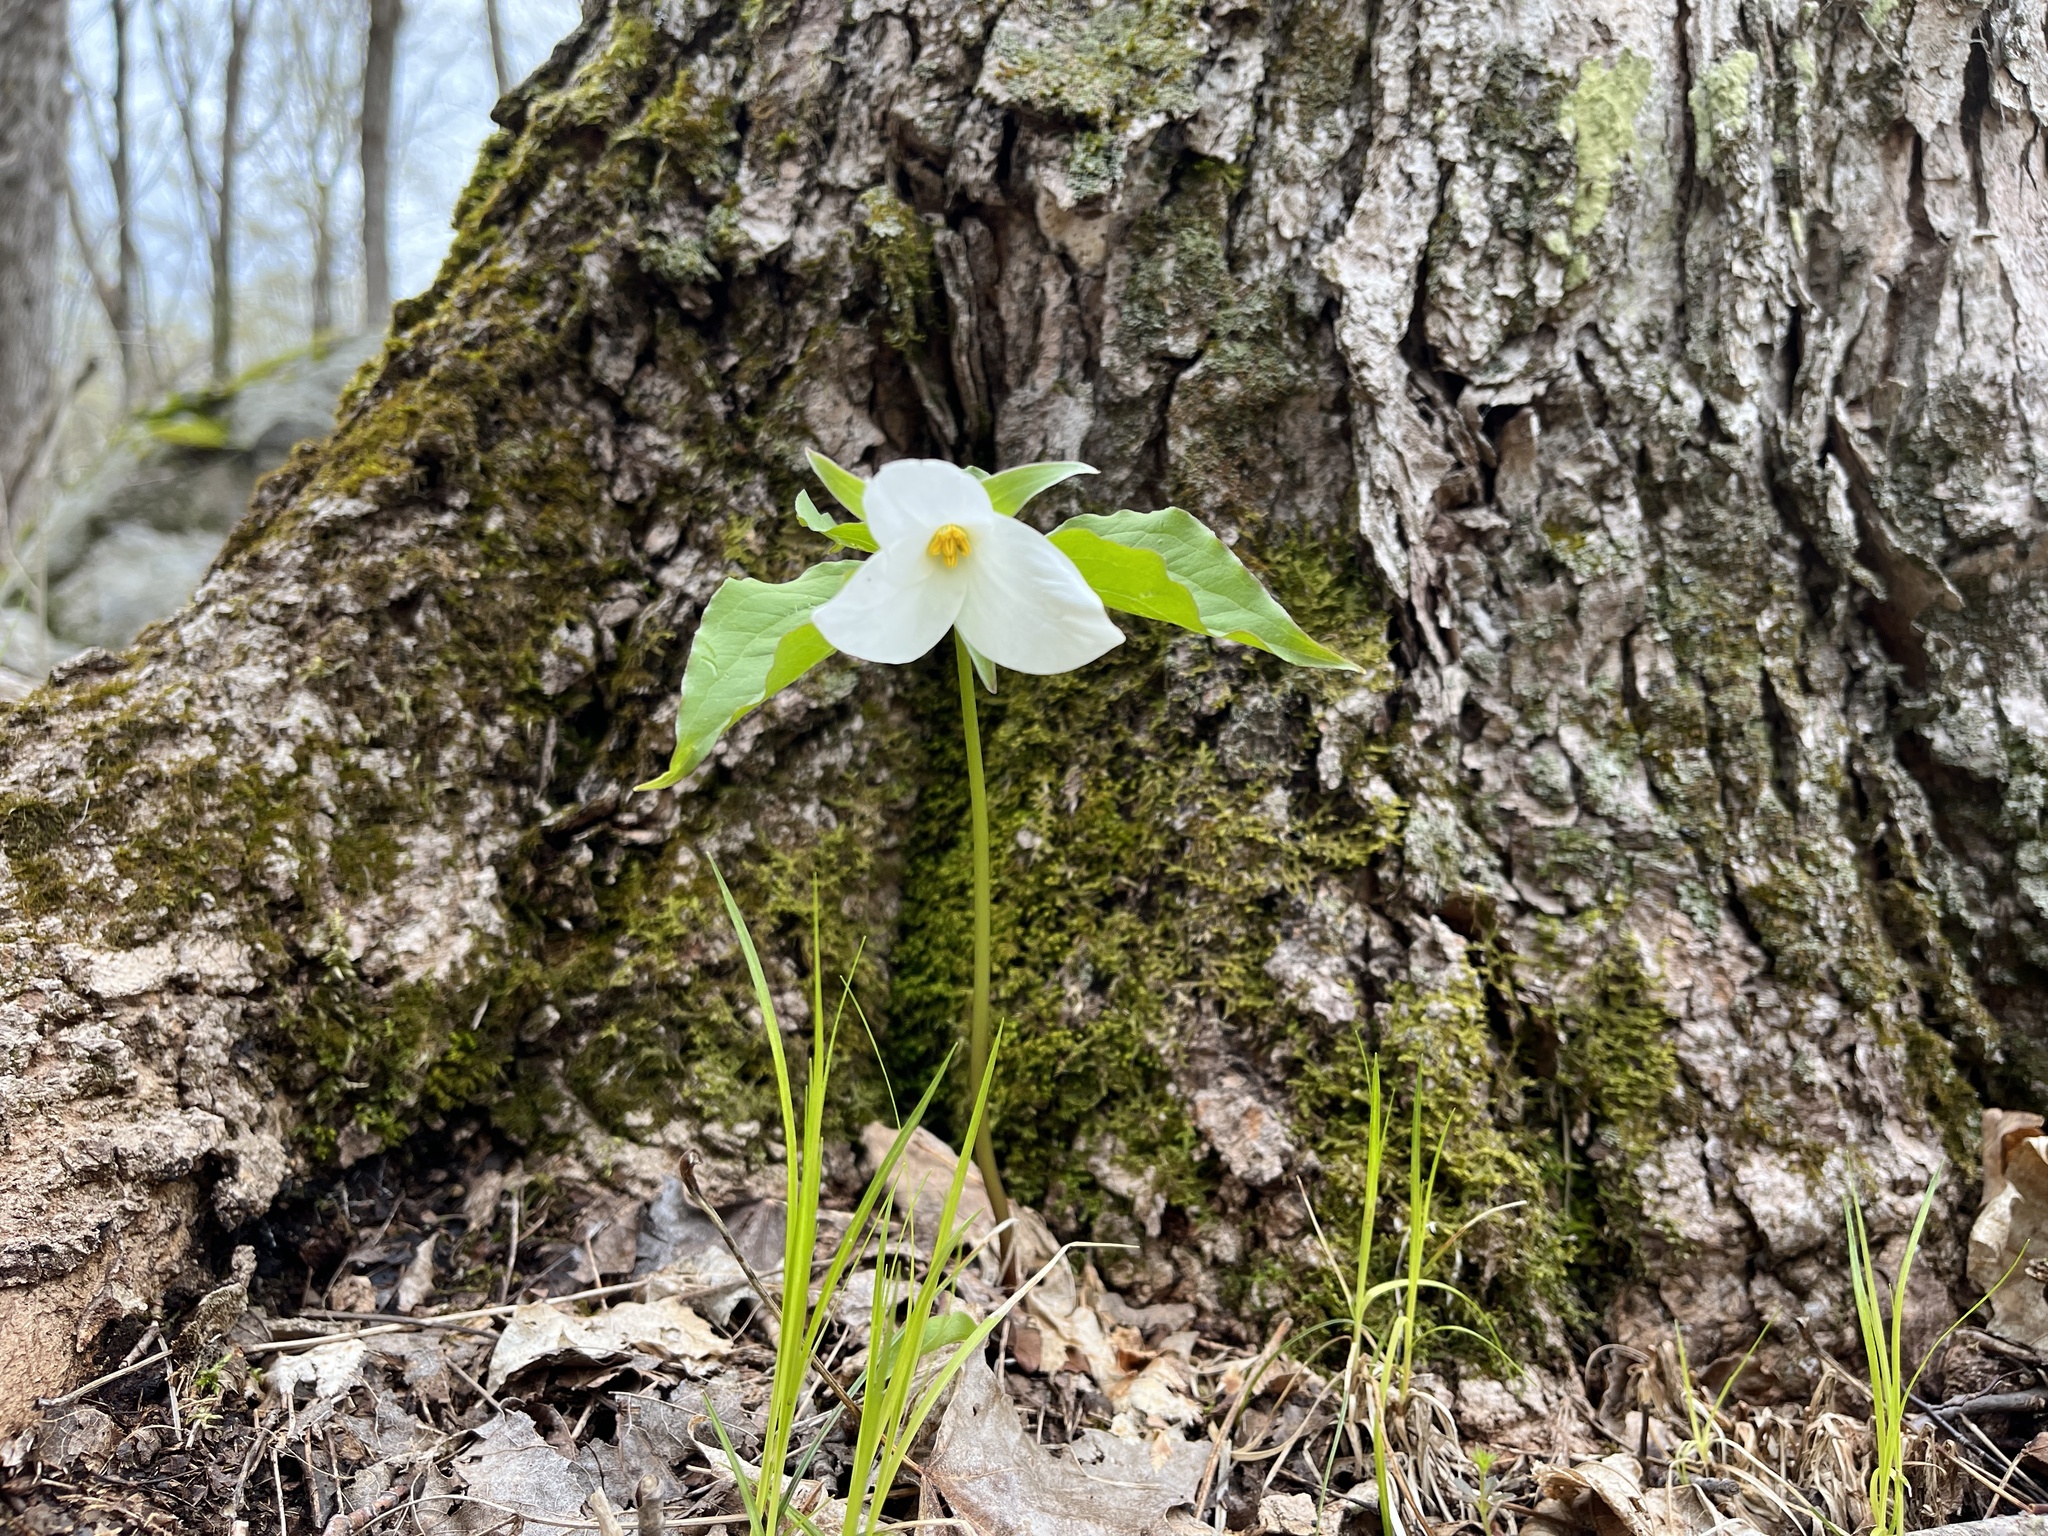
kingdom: Plantae
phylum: Tracheophyta
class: Liliopsida
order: Liliales
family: Melanthiaceae
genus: Trillium
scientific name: Trillium grandiflorum
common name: Great white trillium
